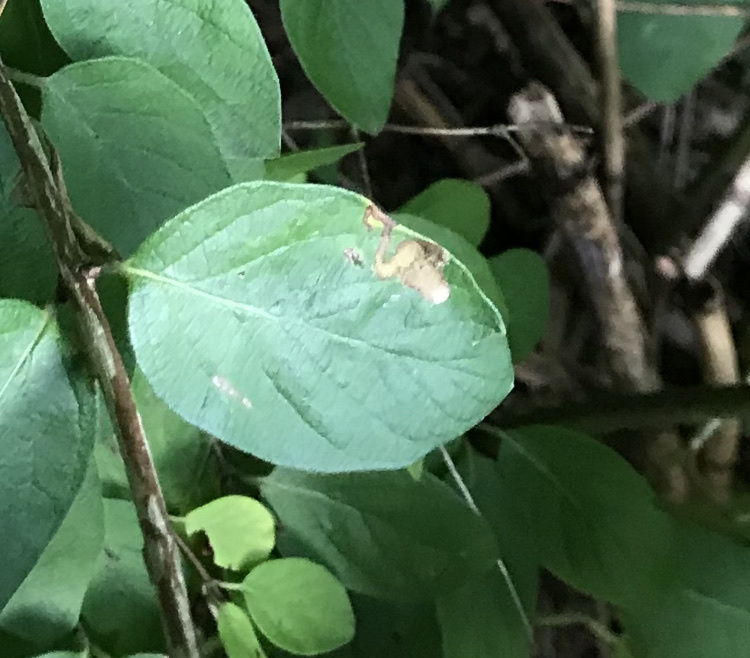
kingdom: Animalia
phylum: Arthropoda
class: Insecta
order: Diptera
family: Agromyzidae
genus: Aulagromyza
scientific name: Aulagromyza
